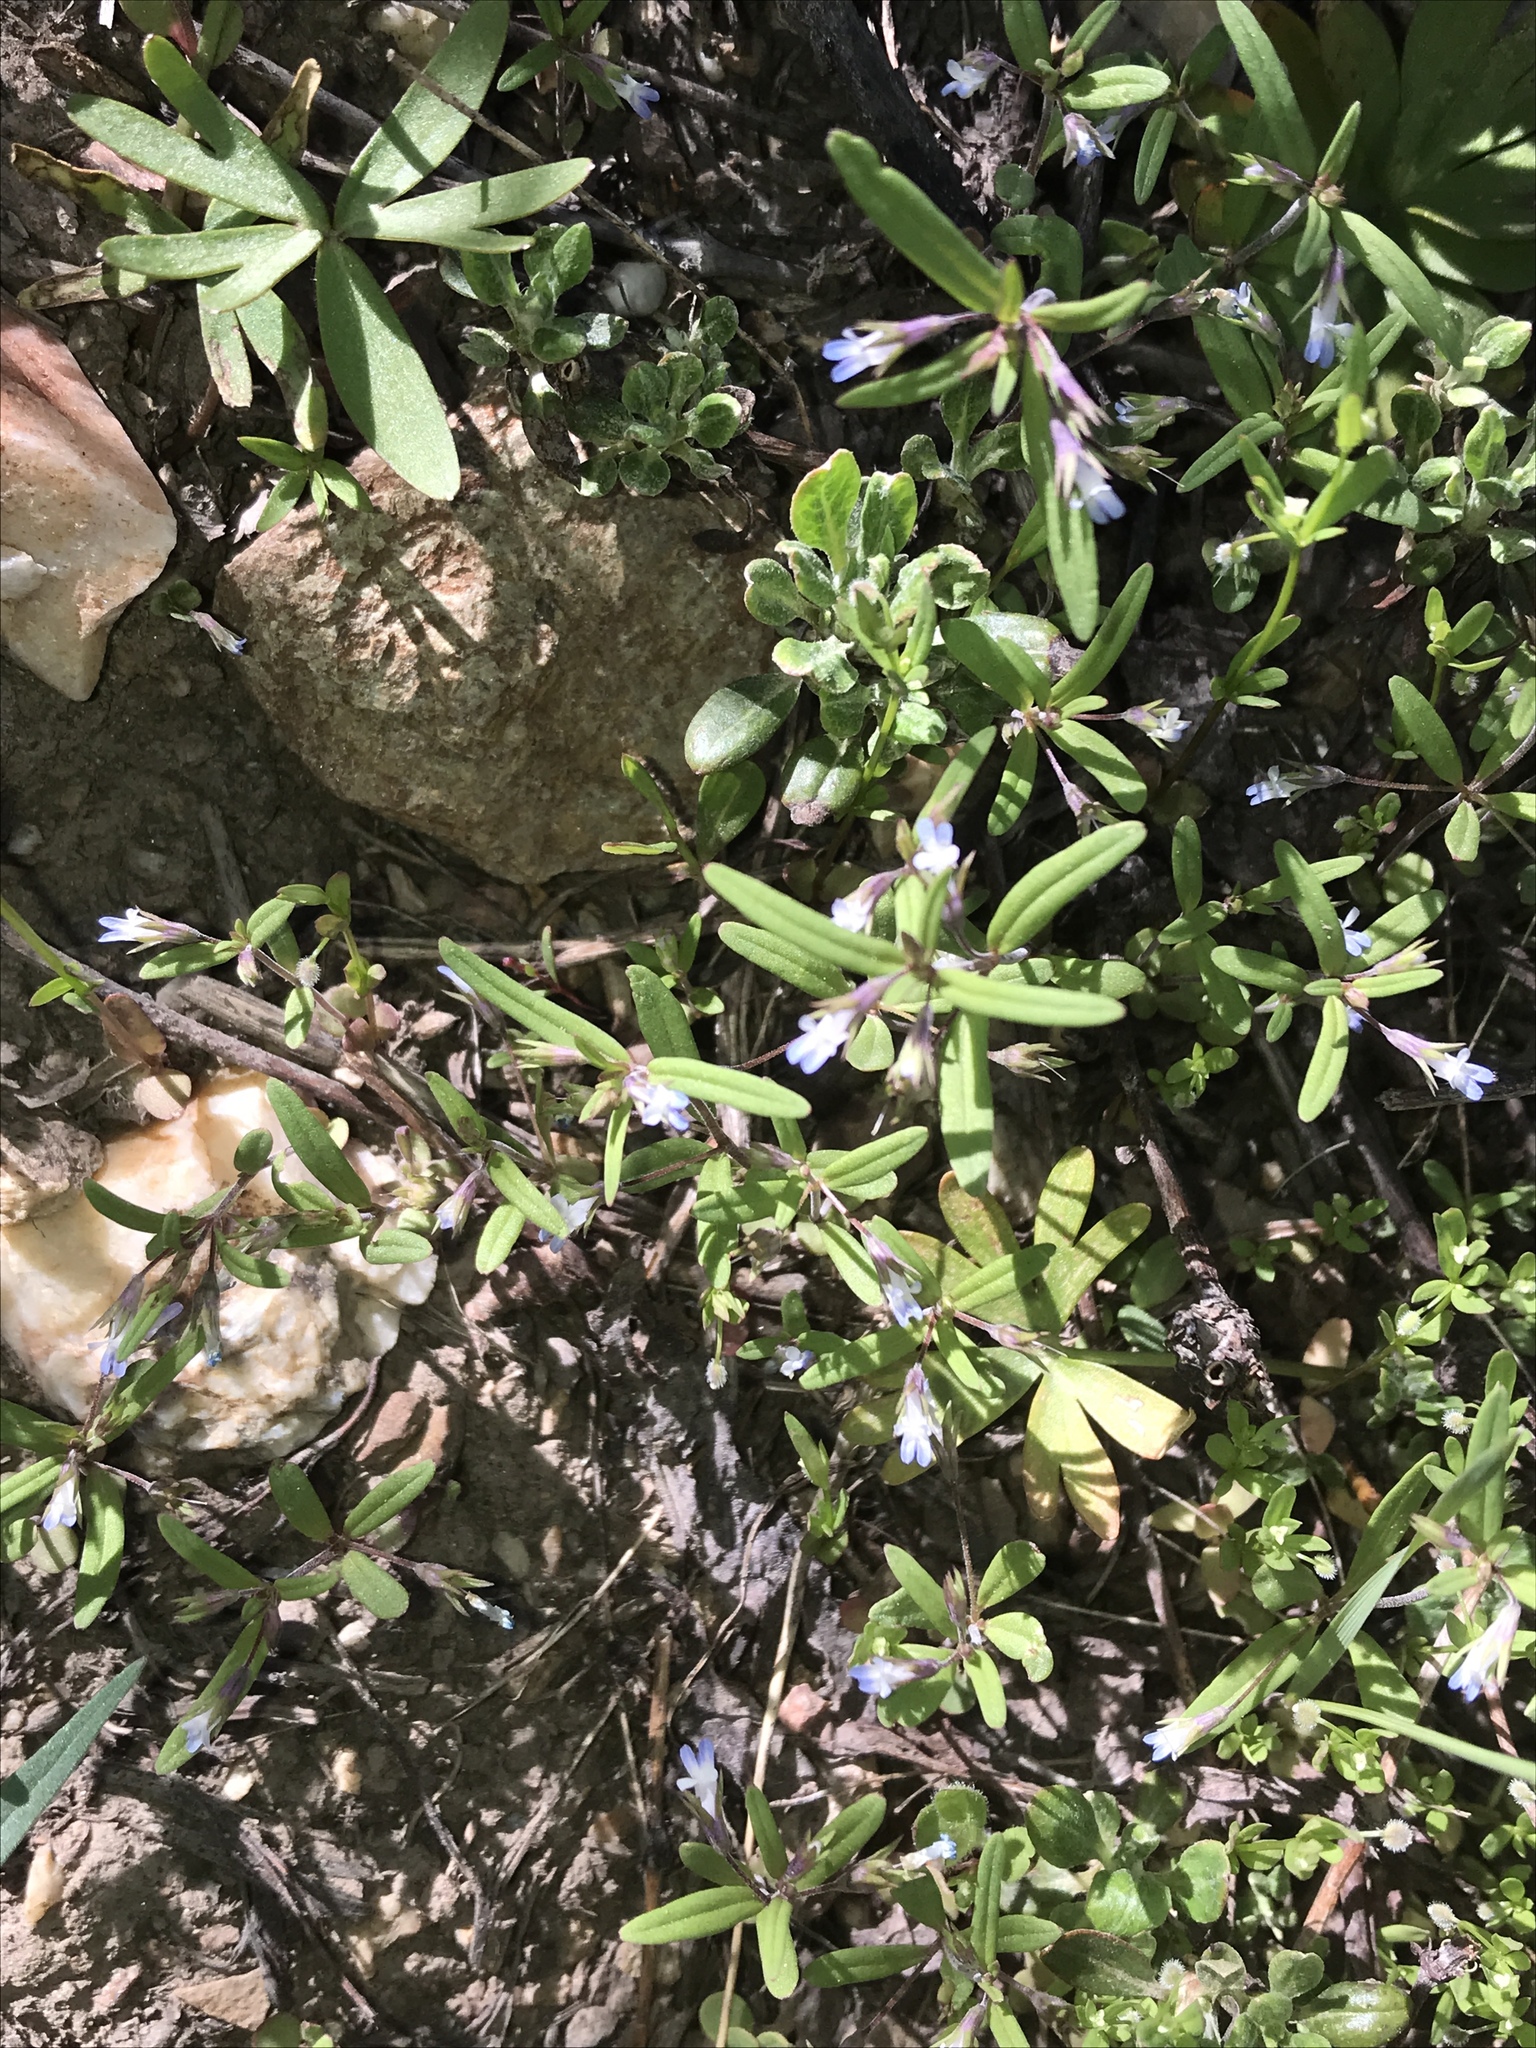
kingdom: Plantae
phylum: Tracheophyta
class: Magnoliopsida
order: Lamiales
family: Plantaginaceae
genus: Collinsia
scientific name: Collinsia parviflora
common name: Blue-lips
